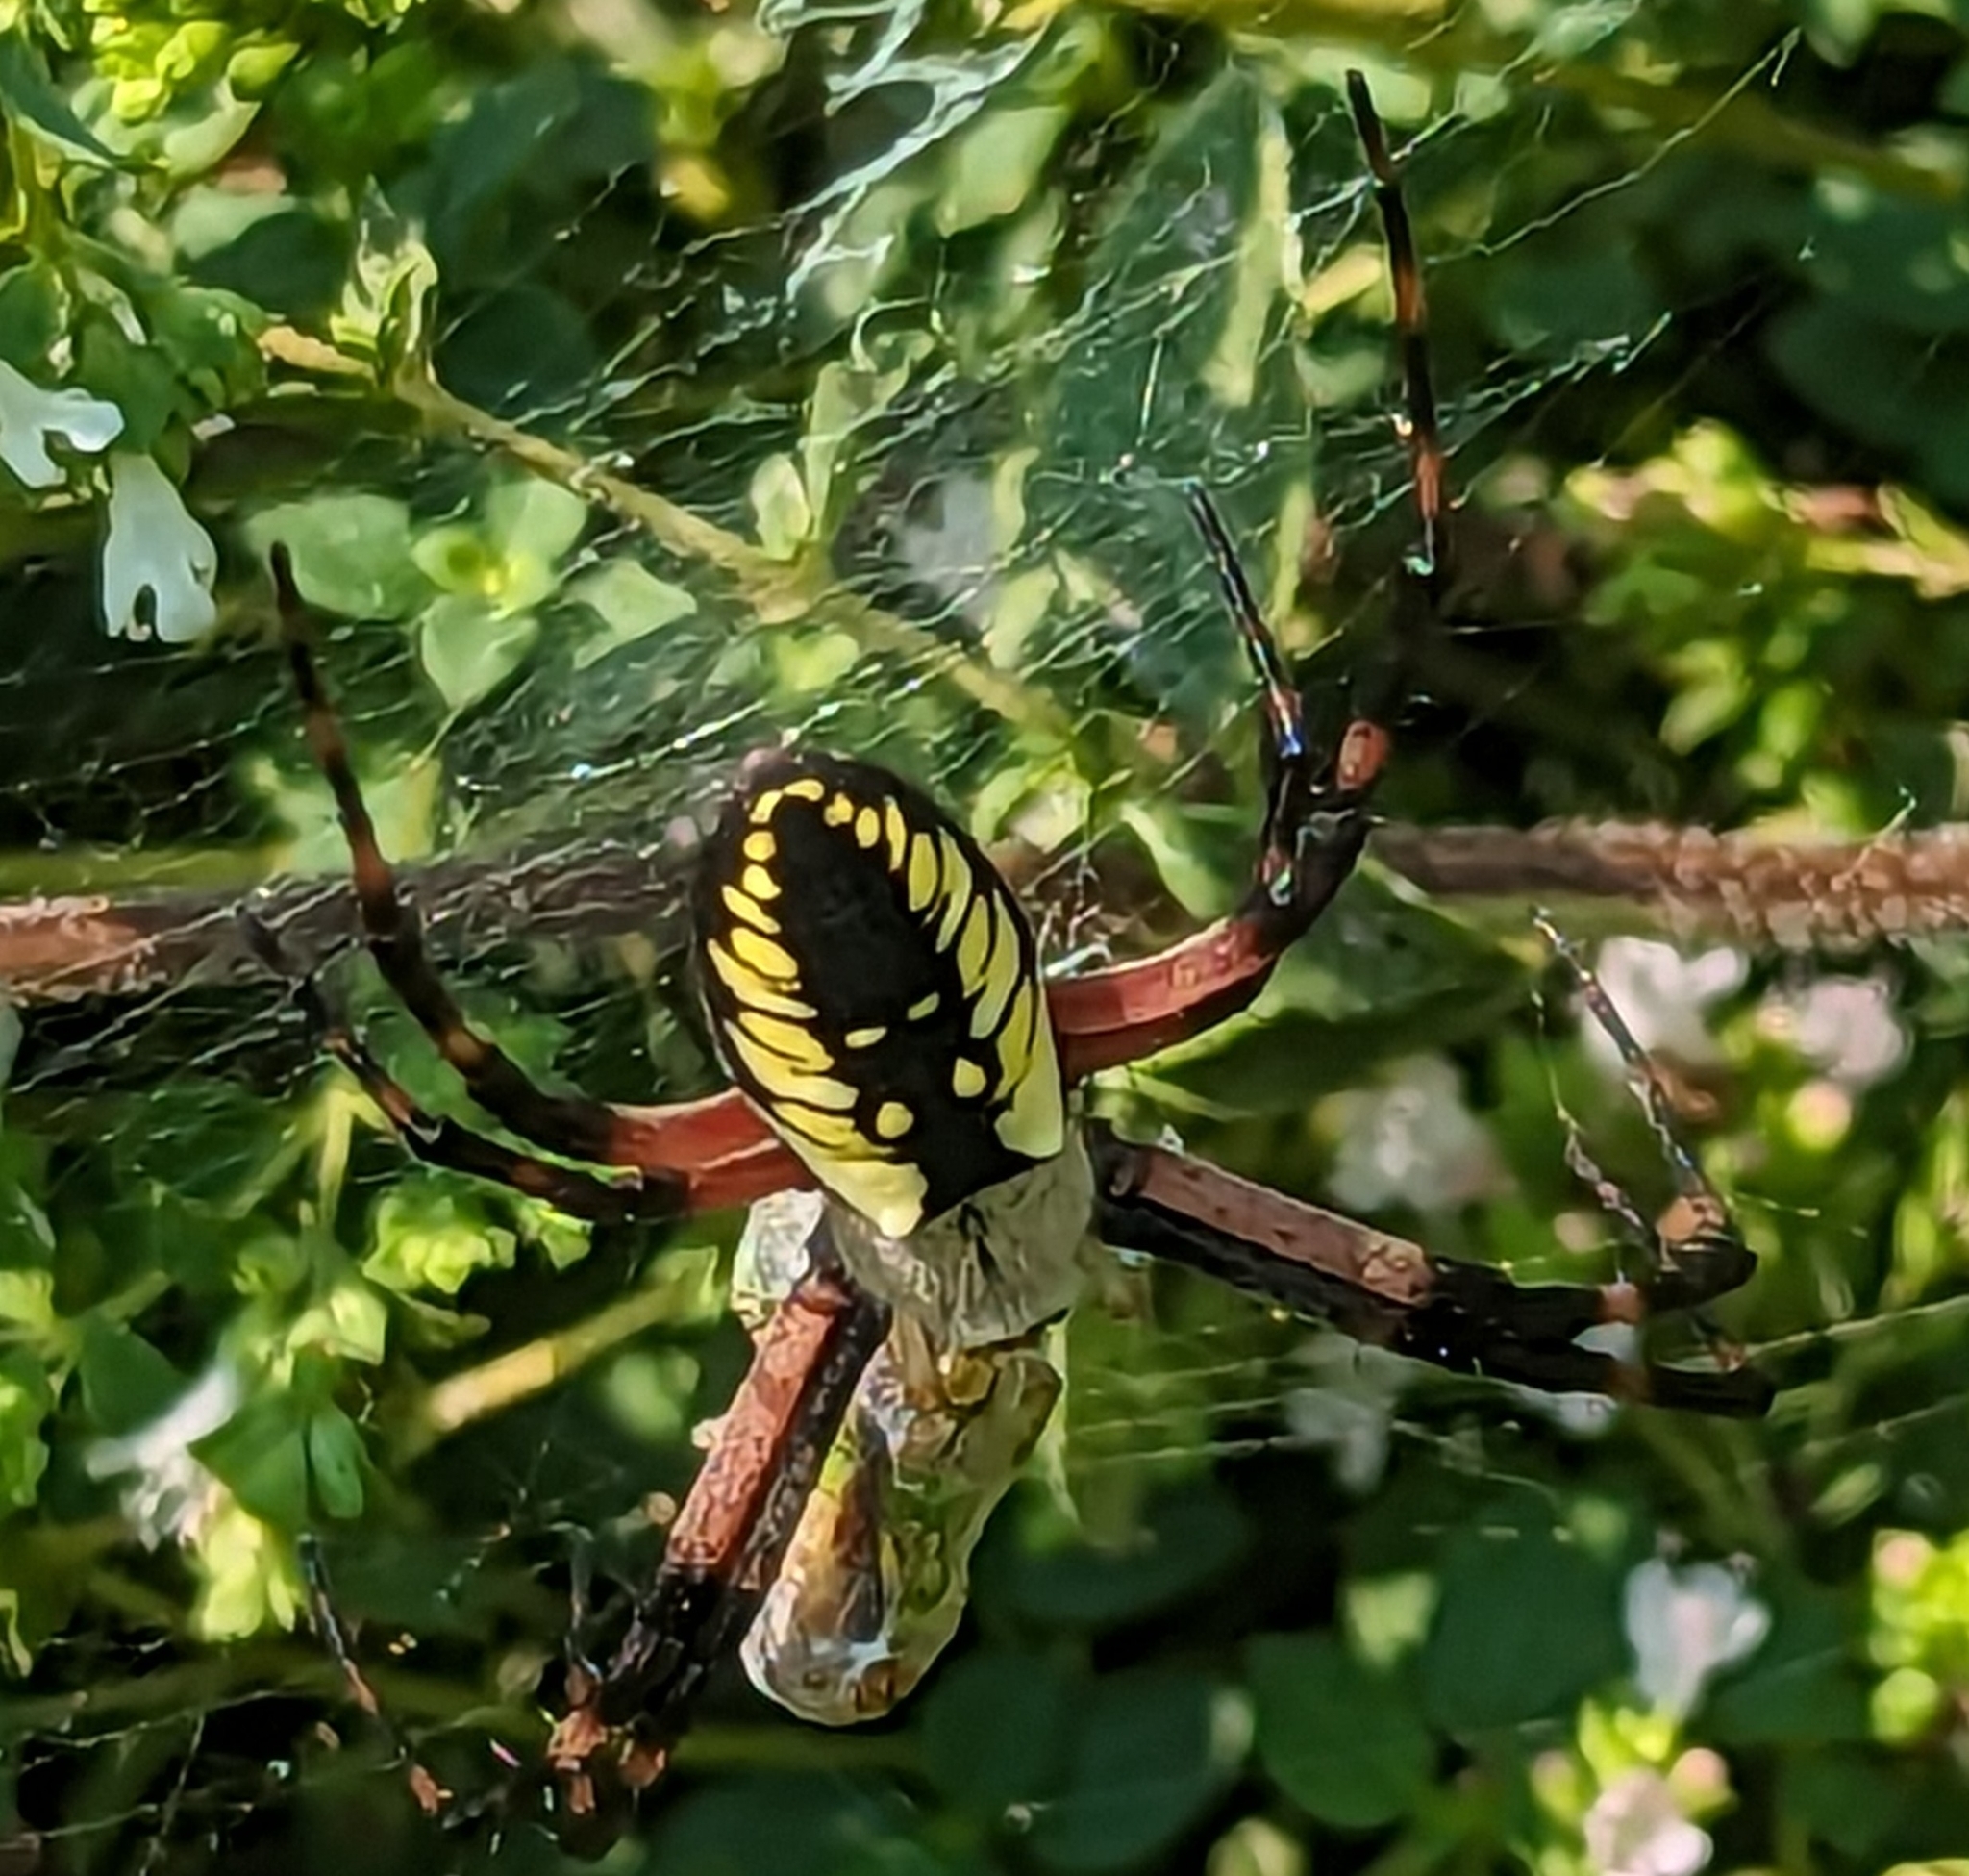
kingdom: Animalia
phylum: Arthropoda
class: Arachnida
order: Araneae
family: Araneidae
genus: Argiope
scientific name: Argiope aurantia
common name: Orb weavers
